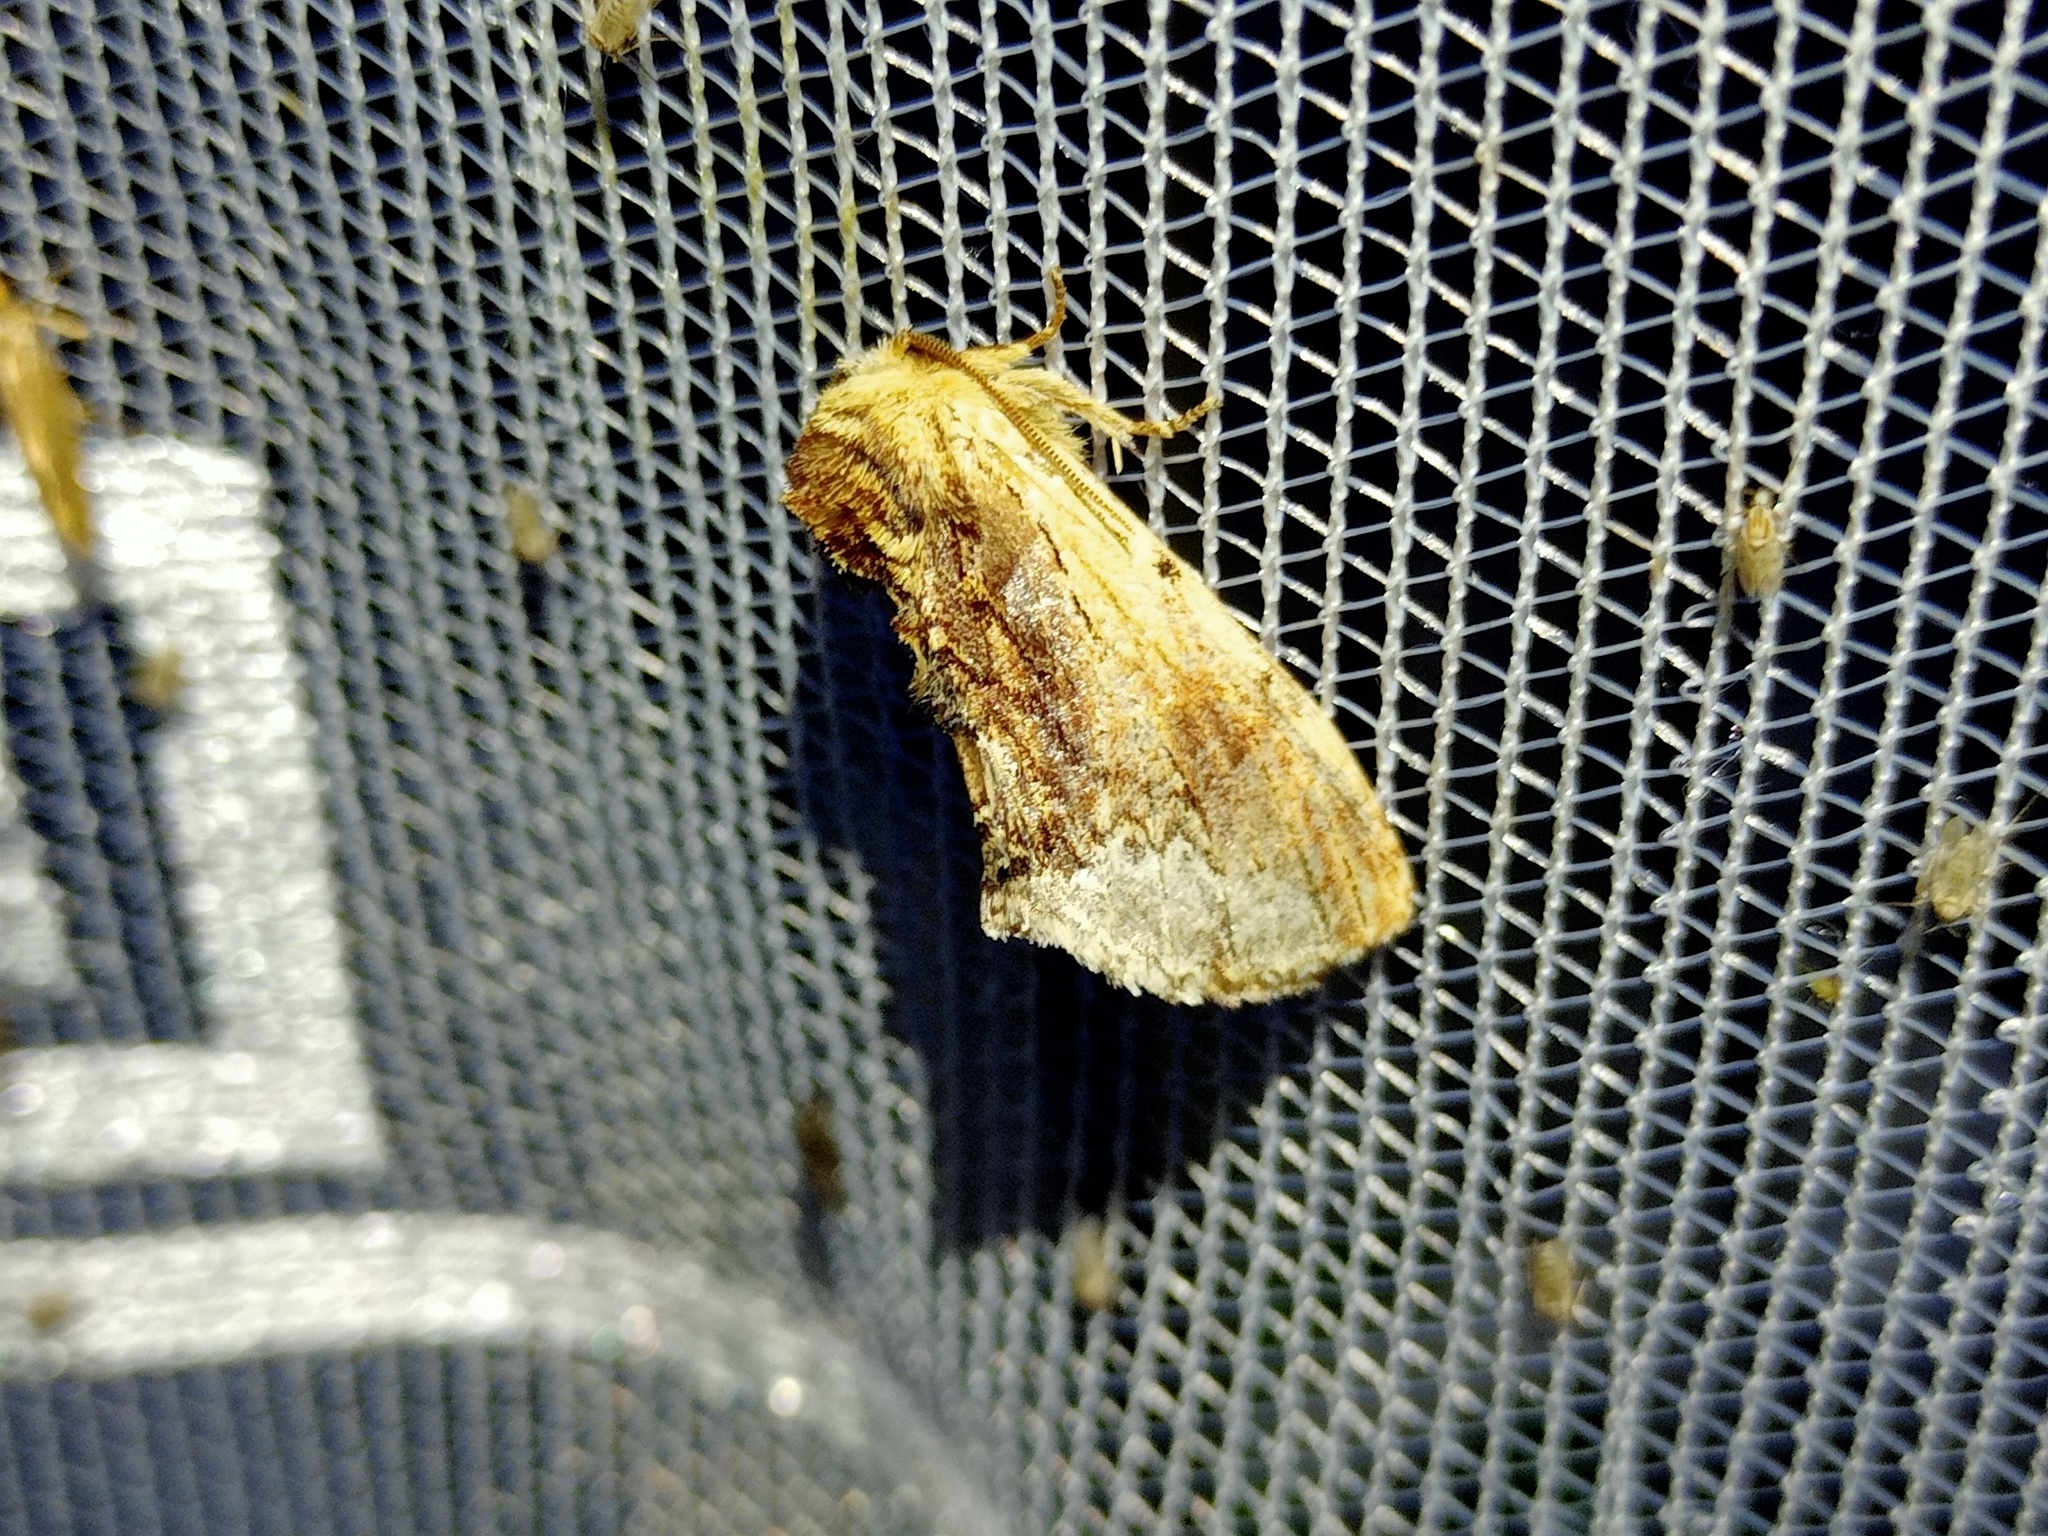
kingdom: Animalia
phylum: Arthropoda
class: Insecta
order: Lepidoptera
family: Notodontidae
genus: Ptilodon
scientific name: Ptilodon cucullina
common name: Maple prominent
